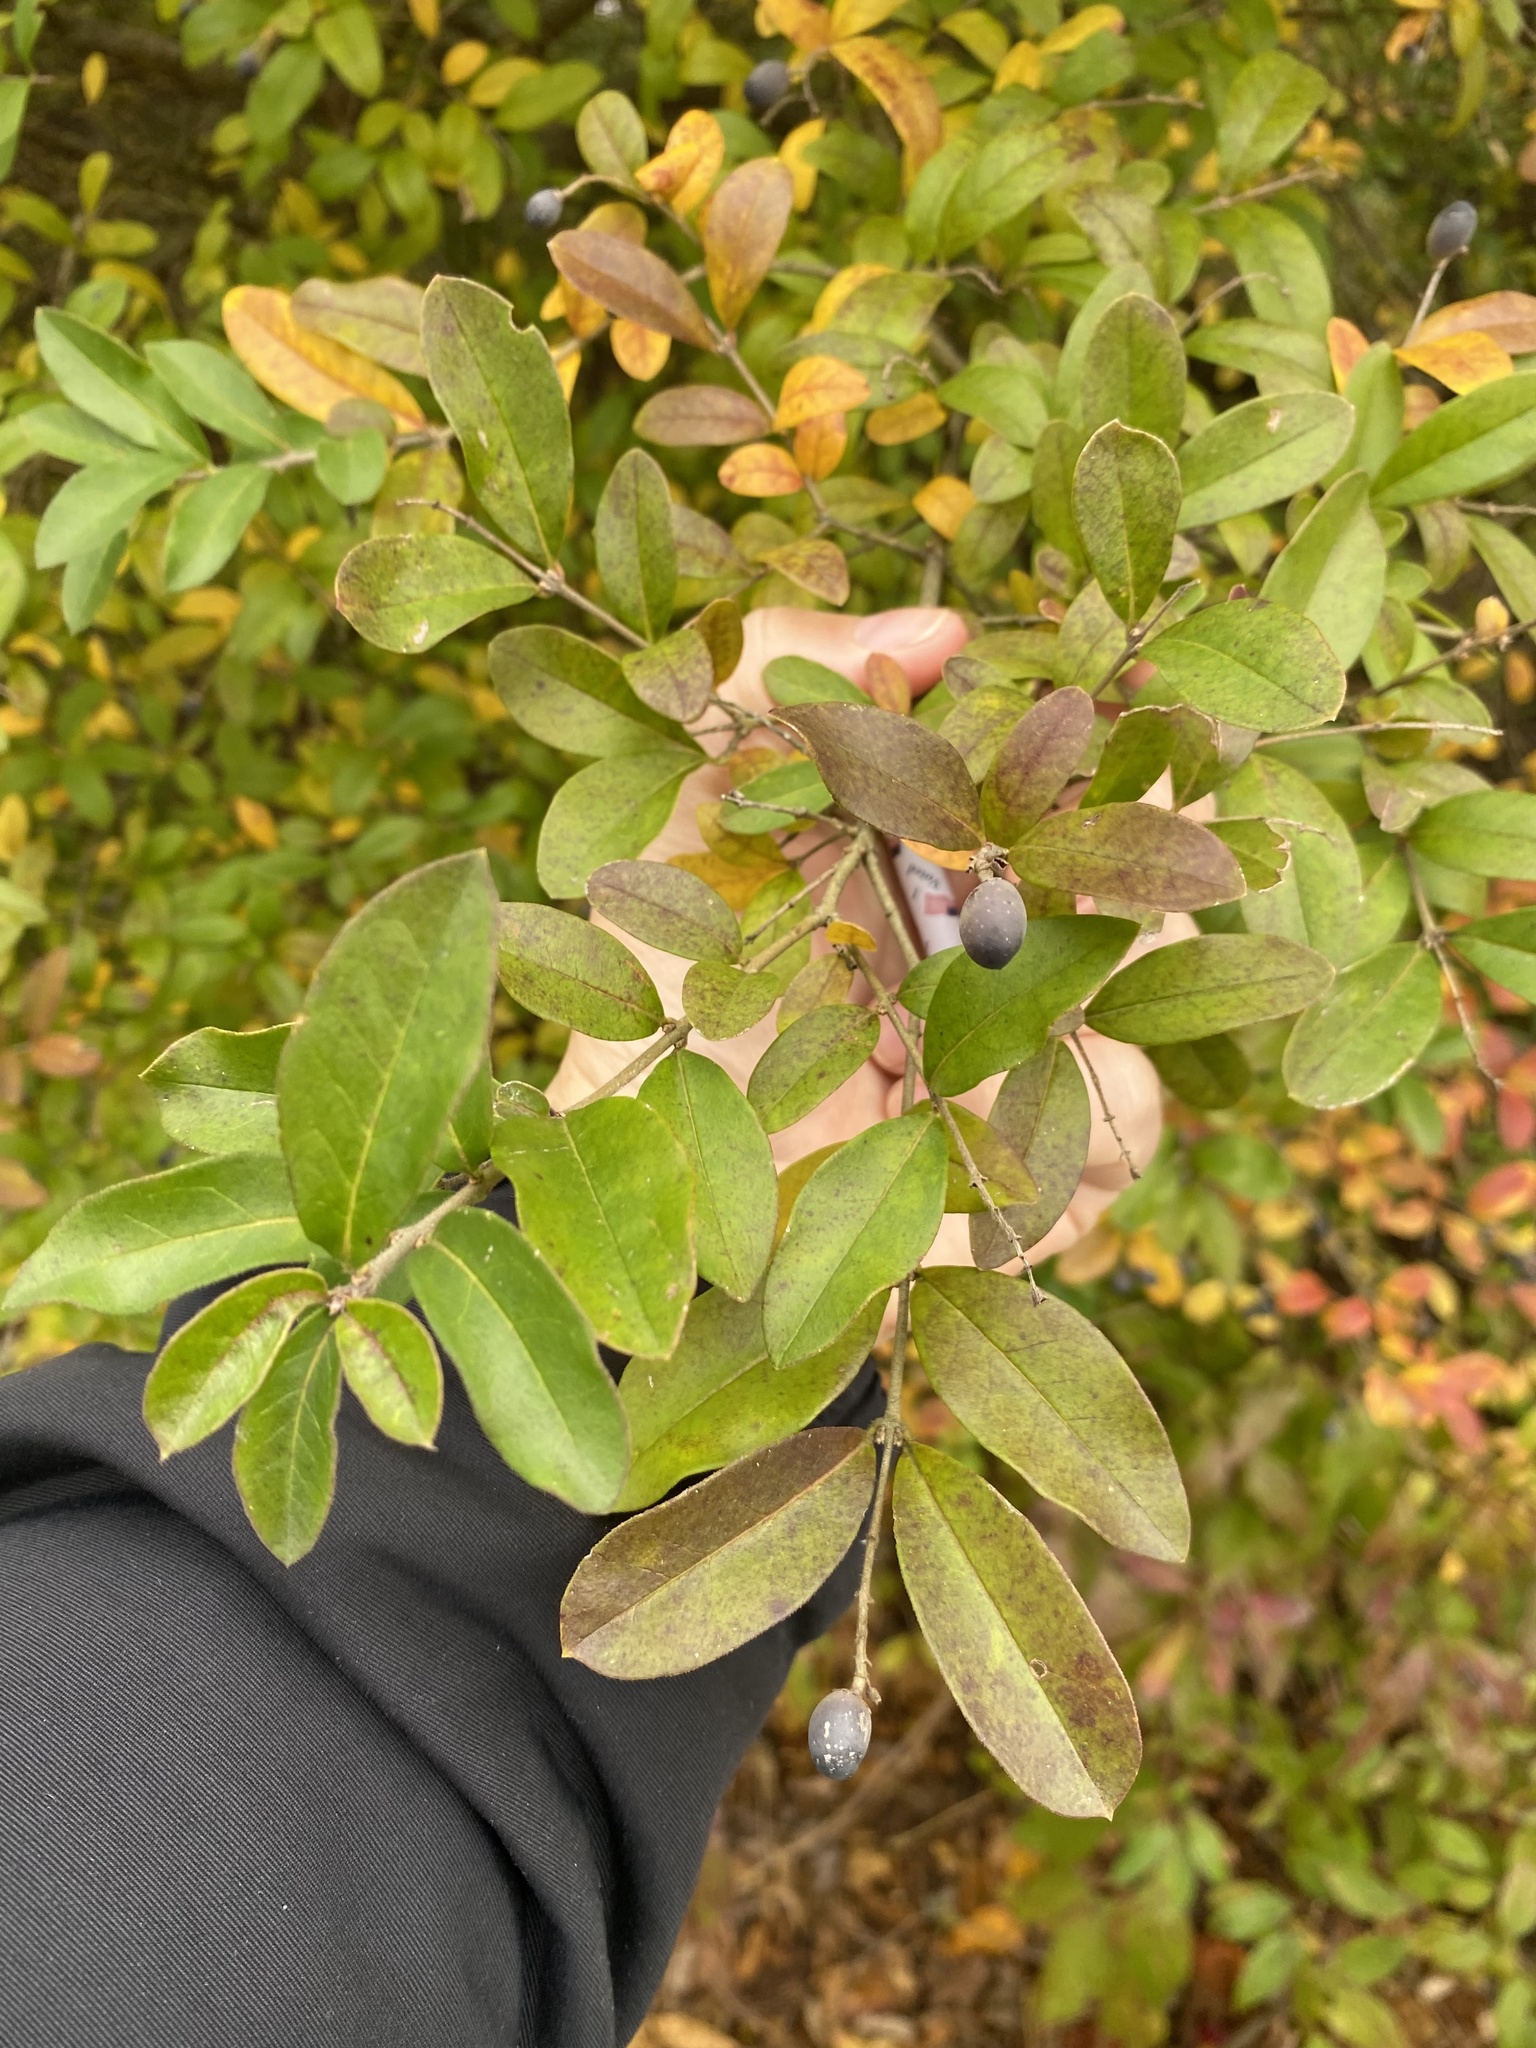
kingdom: Plantae
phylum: Tracheophyta
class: Magnoliopsida
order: Lamiales
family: Oleaceae
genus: Ligustrum
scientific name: Ligustrum obtusifolium
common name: Border privet
